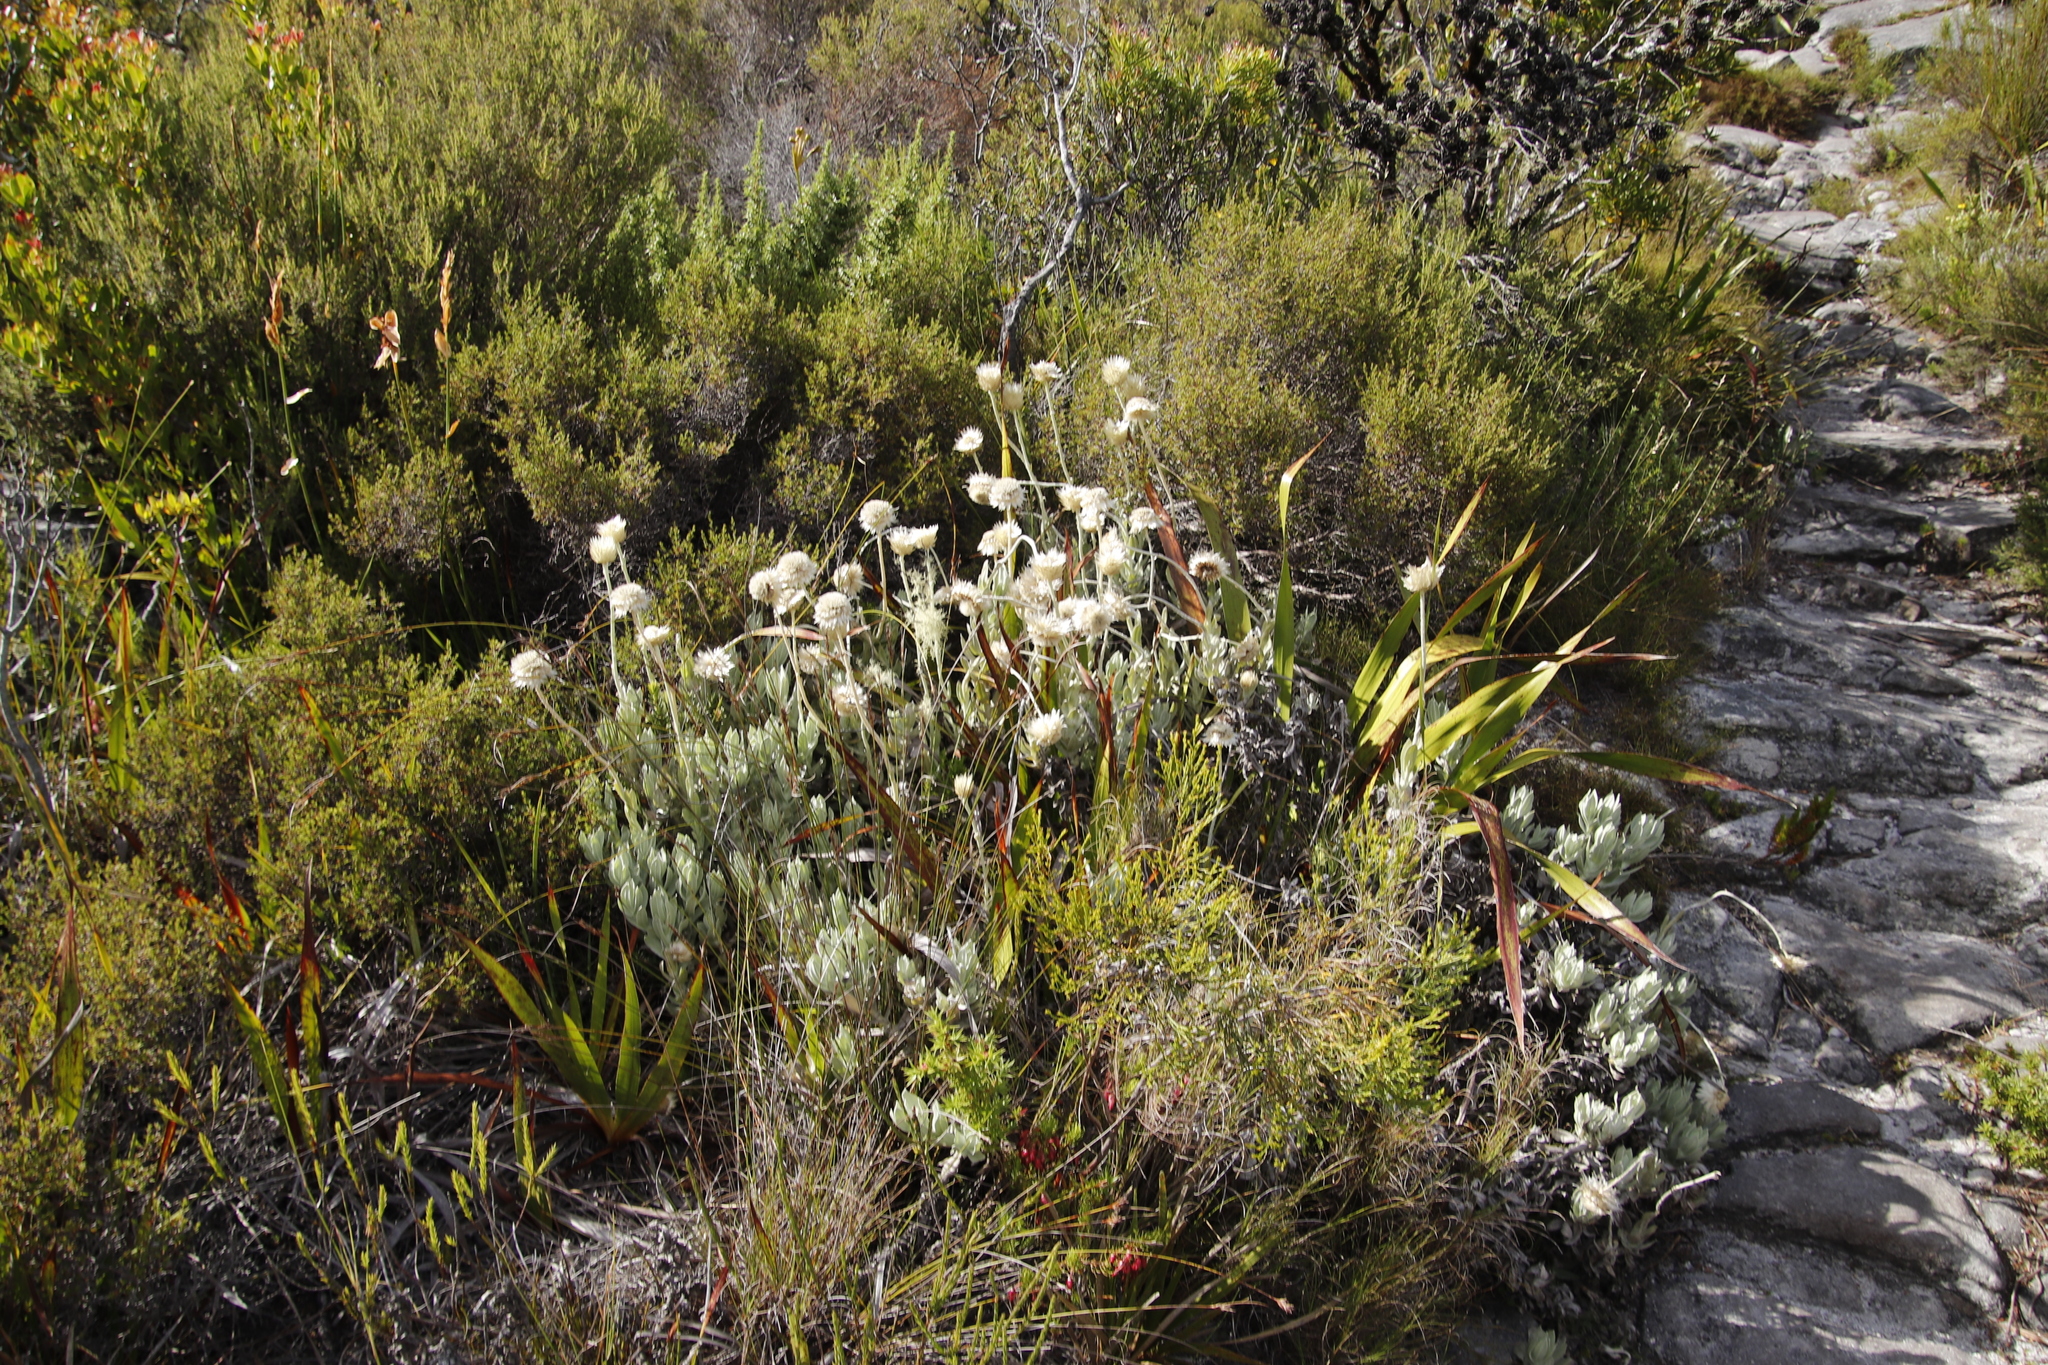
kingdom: Plantae
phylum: Tracheophyta
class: Magnoliopsida
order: Asterales
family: Asteraceae
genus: Syncarpha
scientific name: Syncarpha speciosissima
